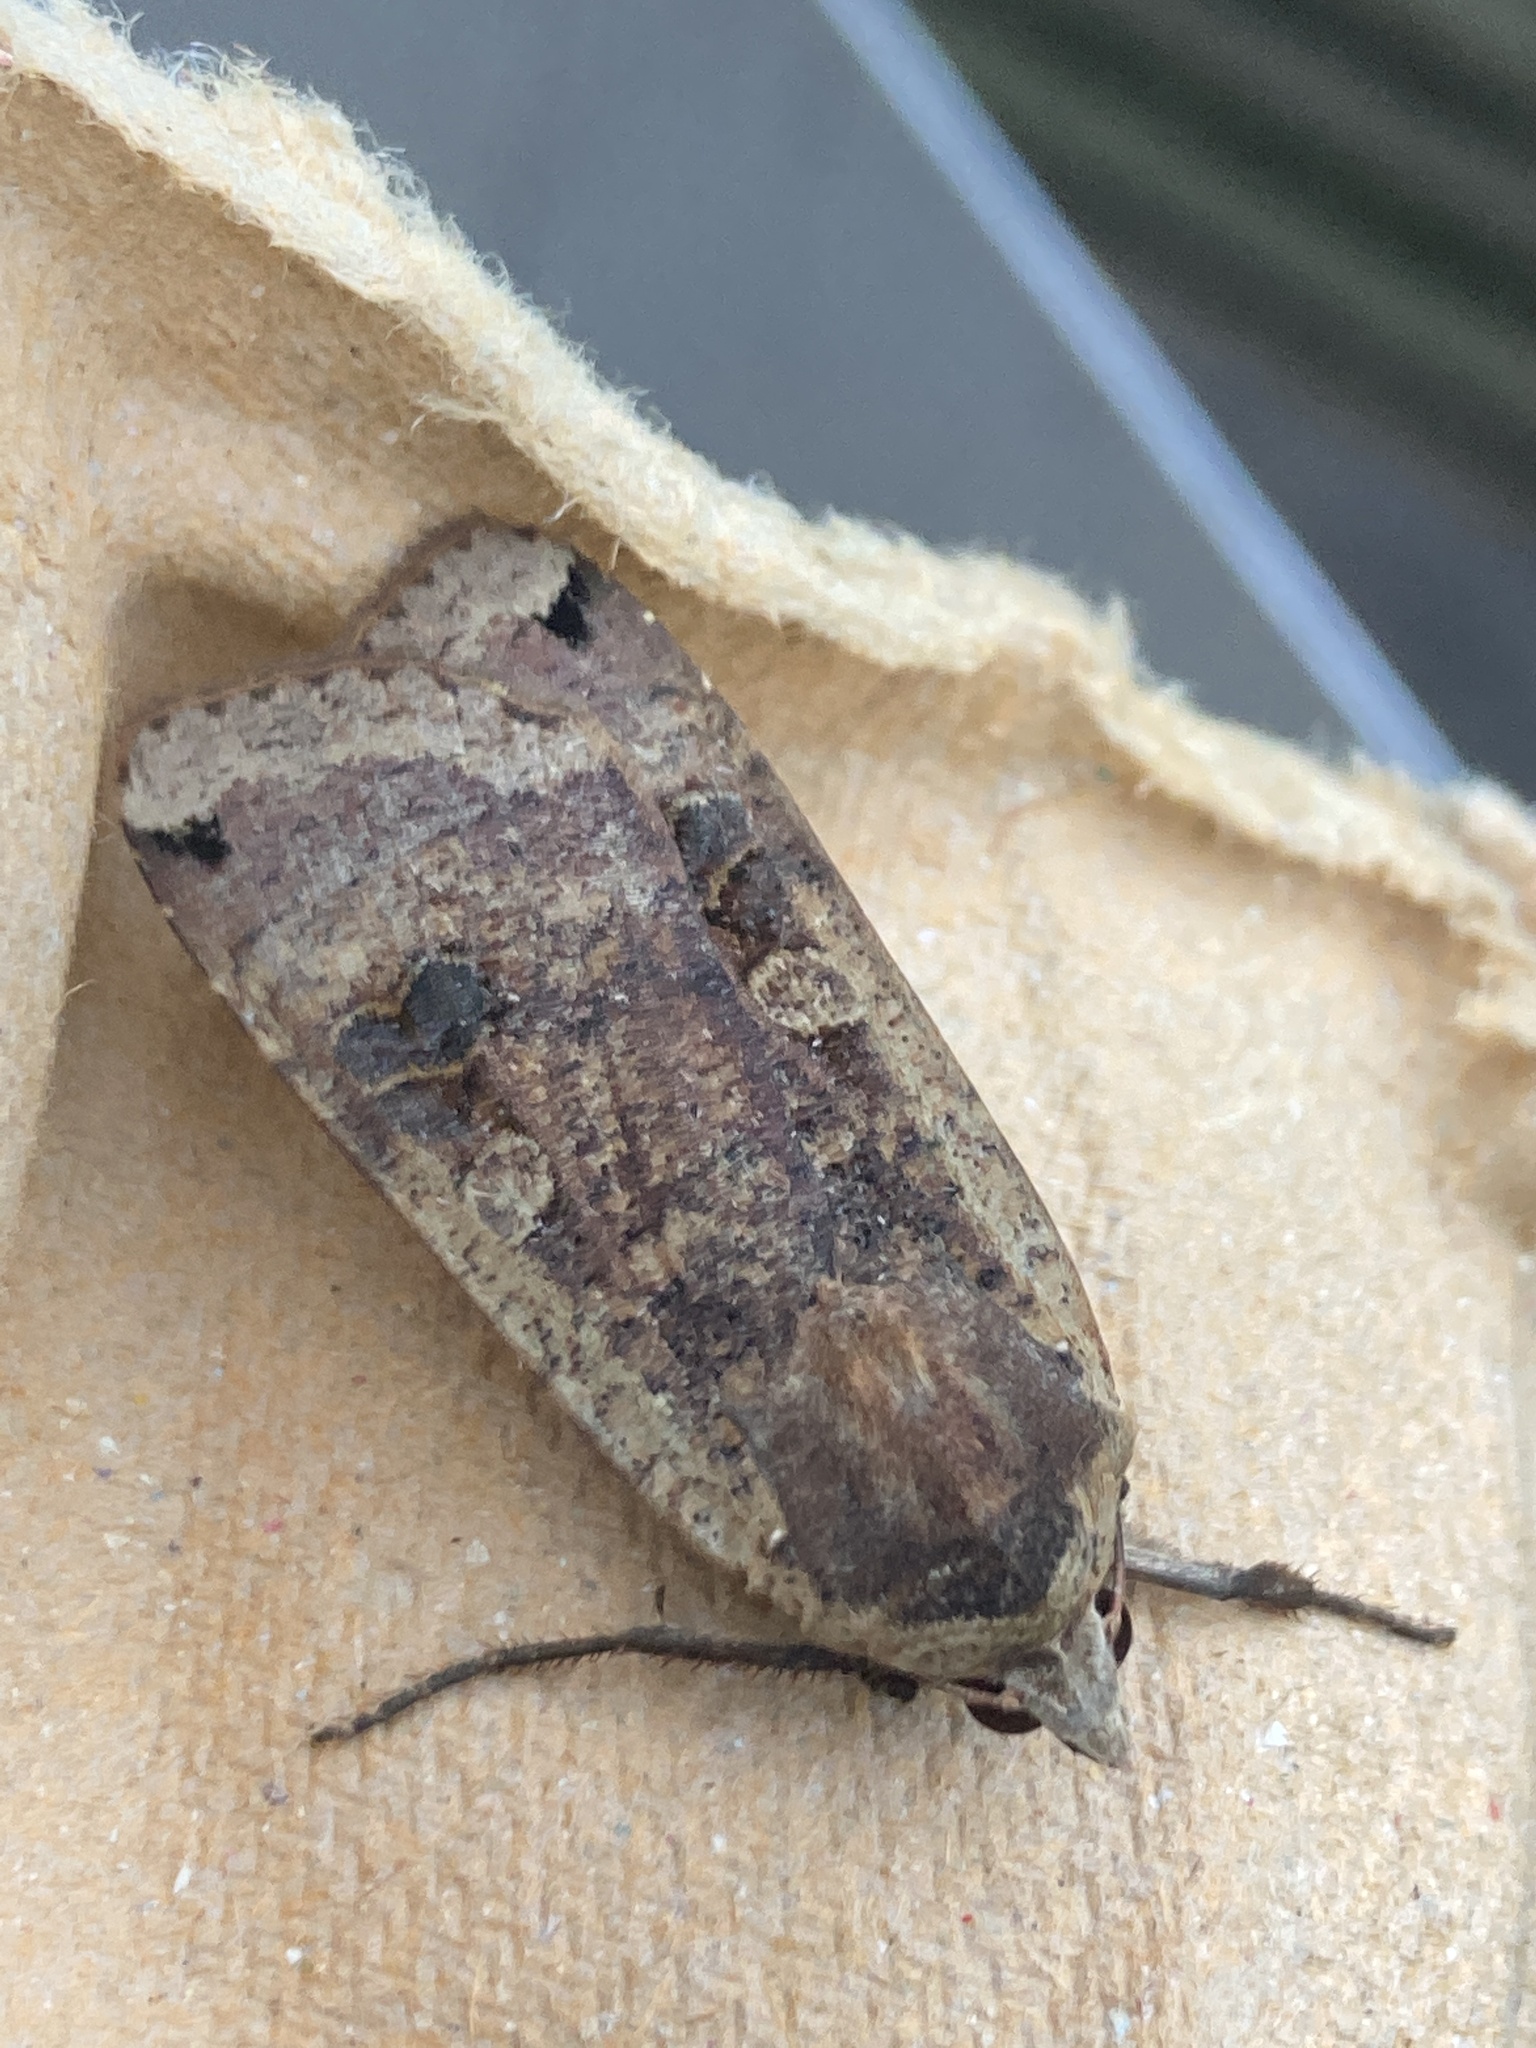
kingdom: Animalia
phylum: Arthropoda
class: Insecta
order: Lepidoptera
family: Noctuidae
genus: Noctua
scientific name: Noctua pronuba
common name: Large yellow underwing
